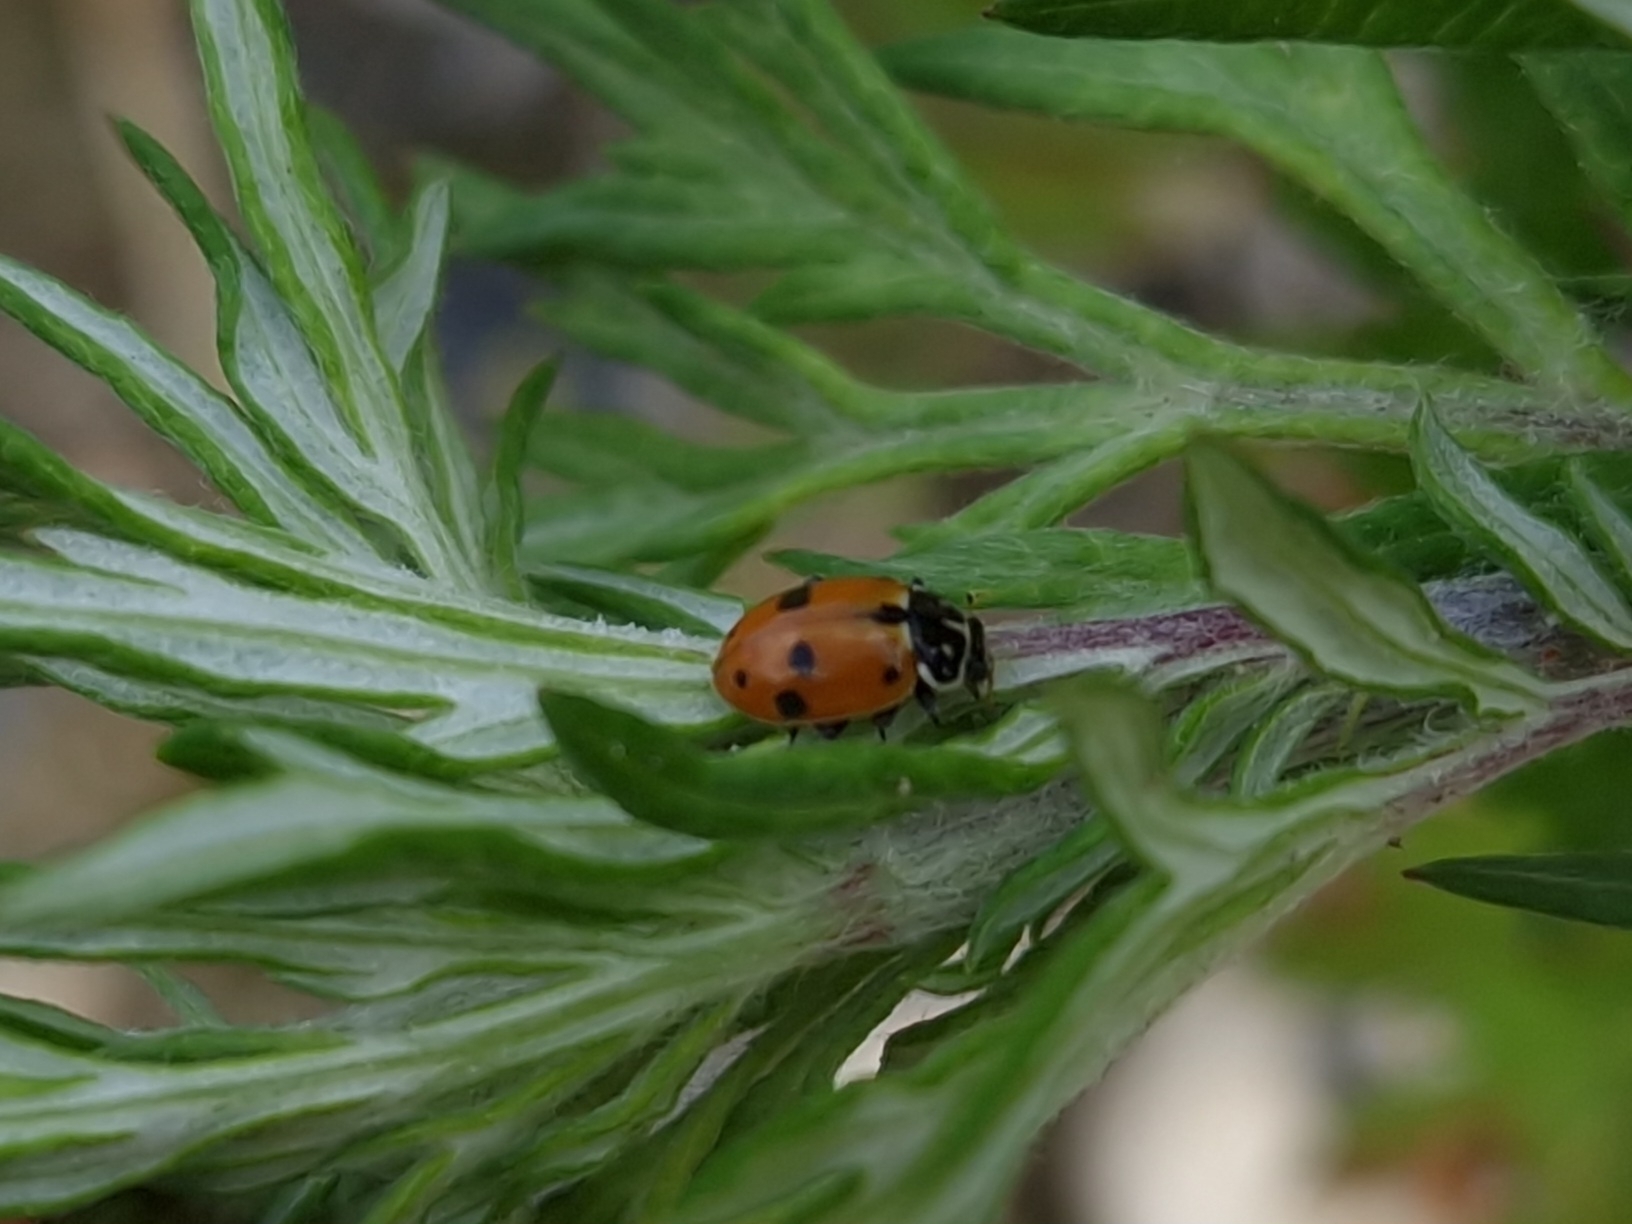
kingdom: Animalia
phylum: Arthropoda
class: Insecta
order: Coleoptera
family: Coccinellidae
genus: Hippodamia
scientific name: Hippodamia variegata
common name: Ladybird beetle
